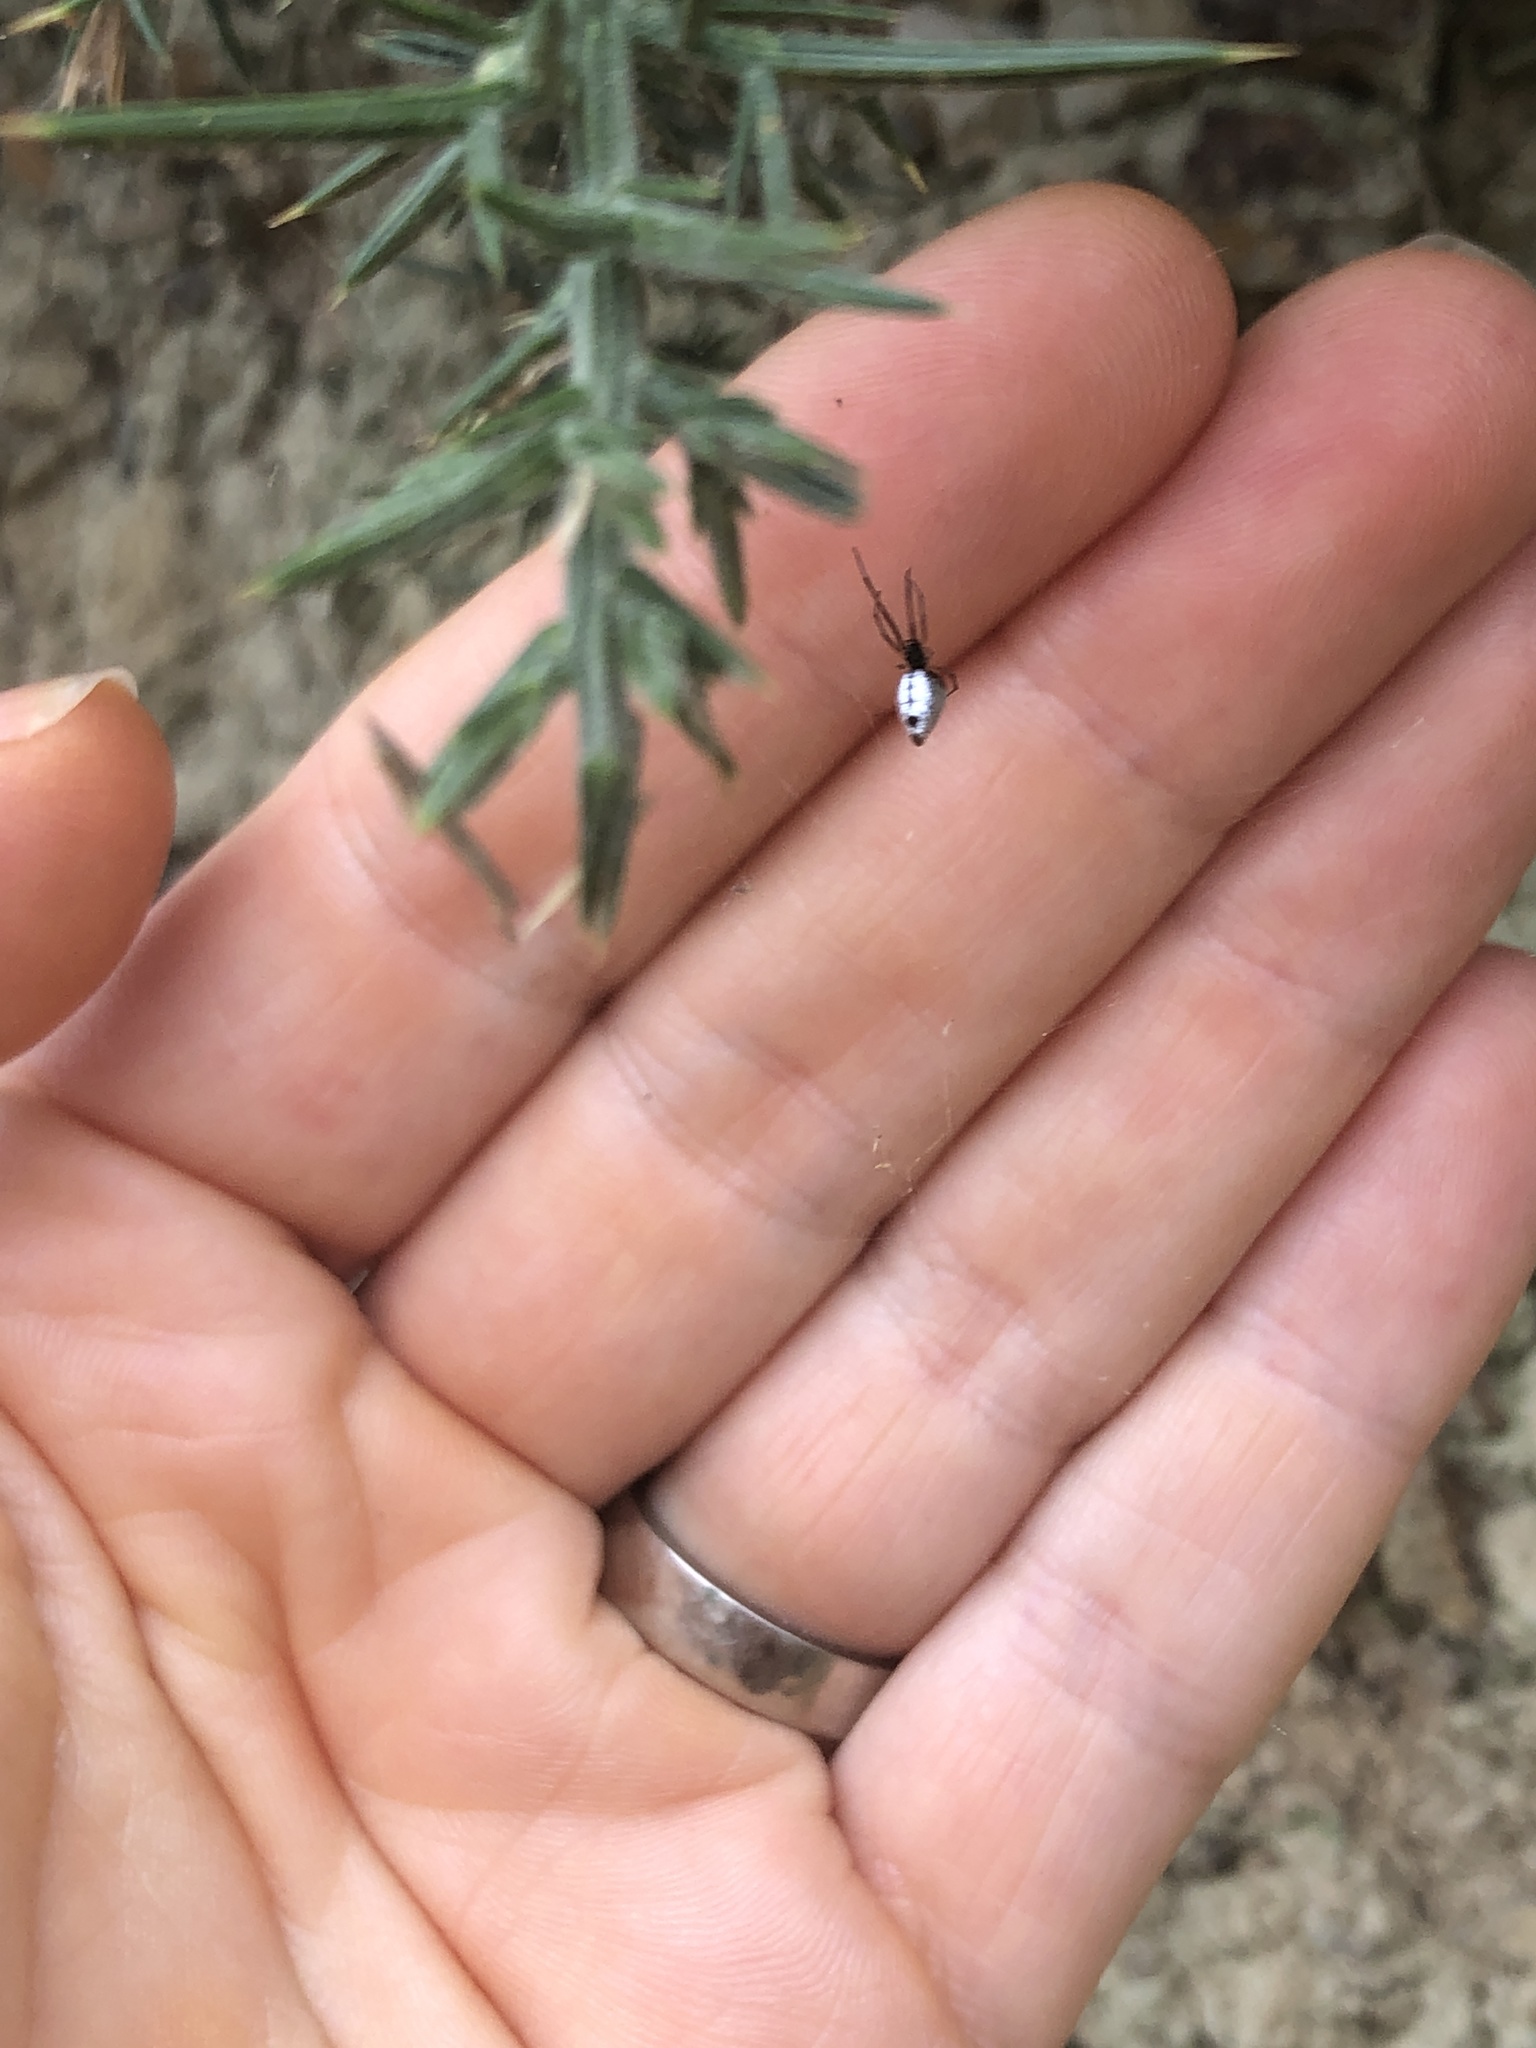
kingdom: Animalia
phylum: Arthropoda
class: Arachnida
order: Araneae
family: Theridiidae
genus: Argyrodes
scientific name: Argyrodes antipodianus
